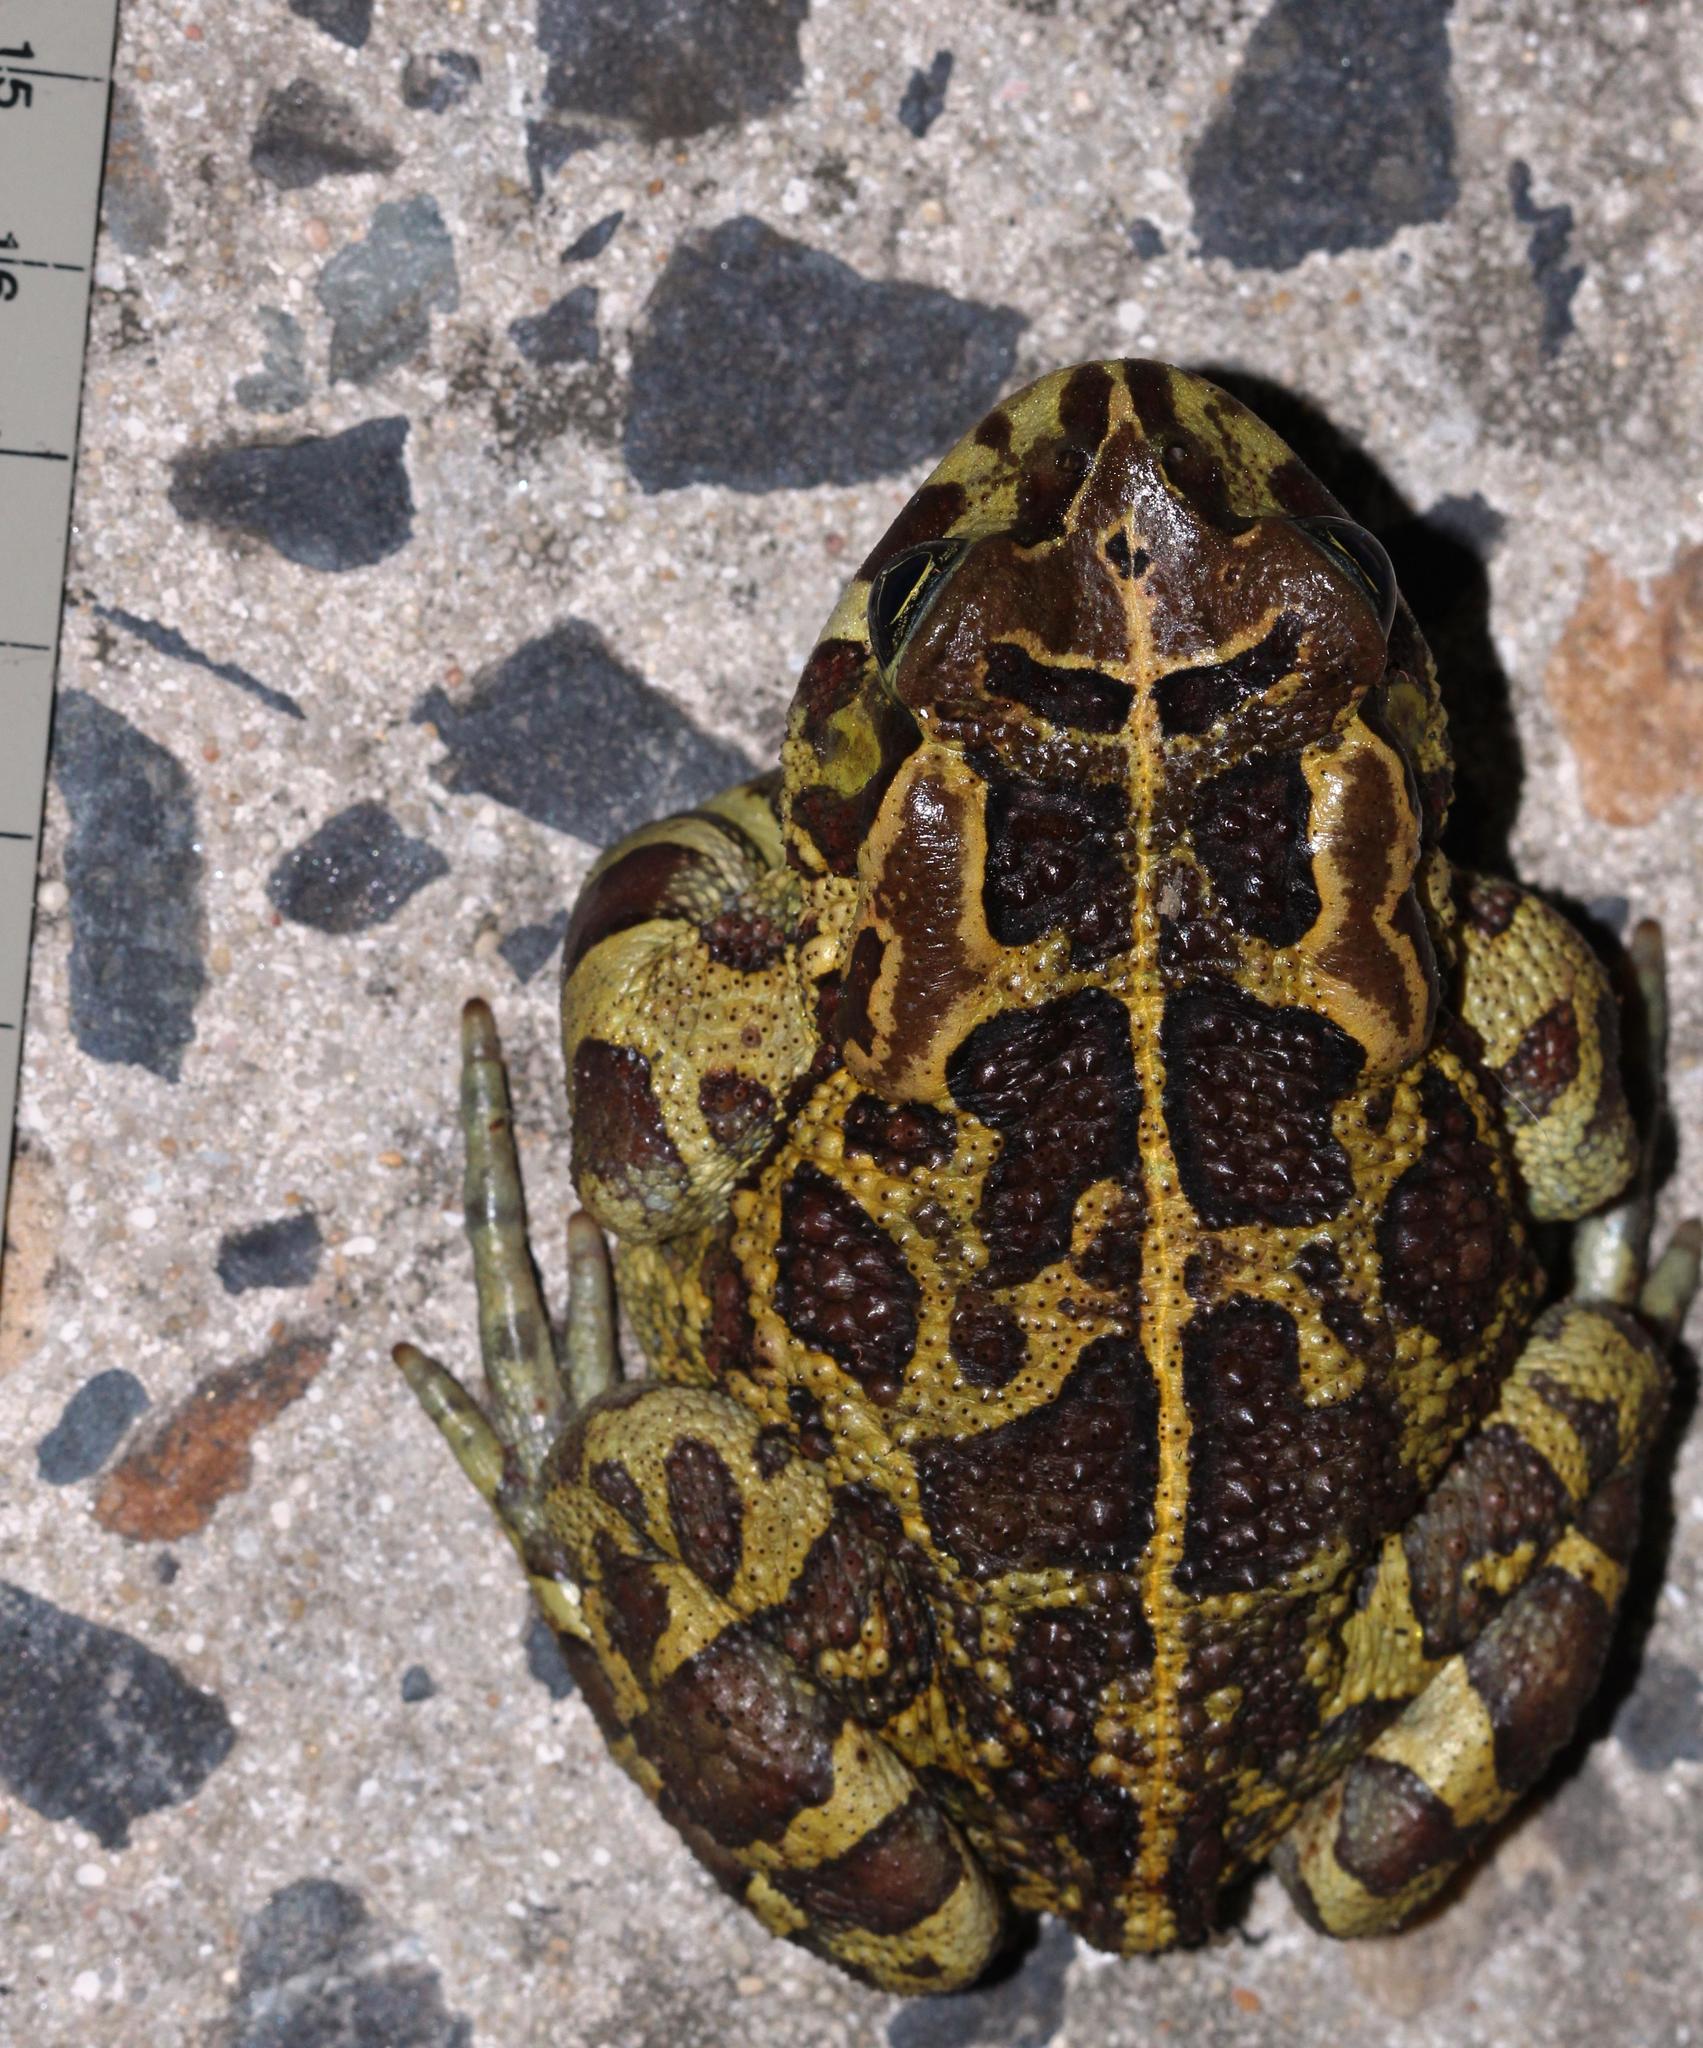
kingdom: Animalia
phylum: Chordata
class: Amphibia
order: Anura
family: Bufonidae
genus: Sclerophrys
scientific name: Sclerophrys pantherina
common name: Panther toad
